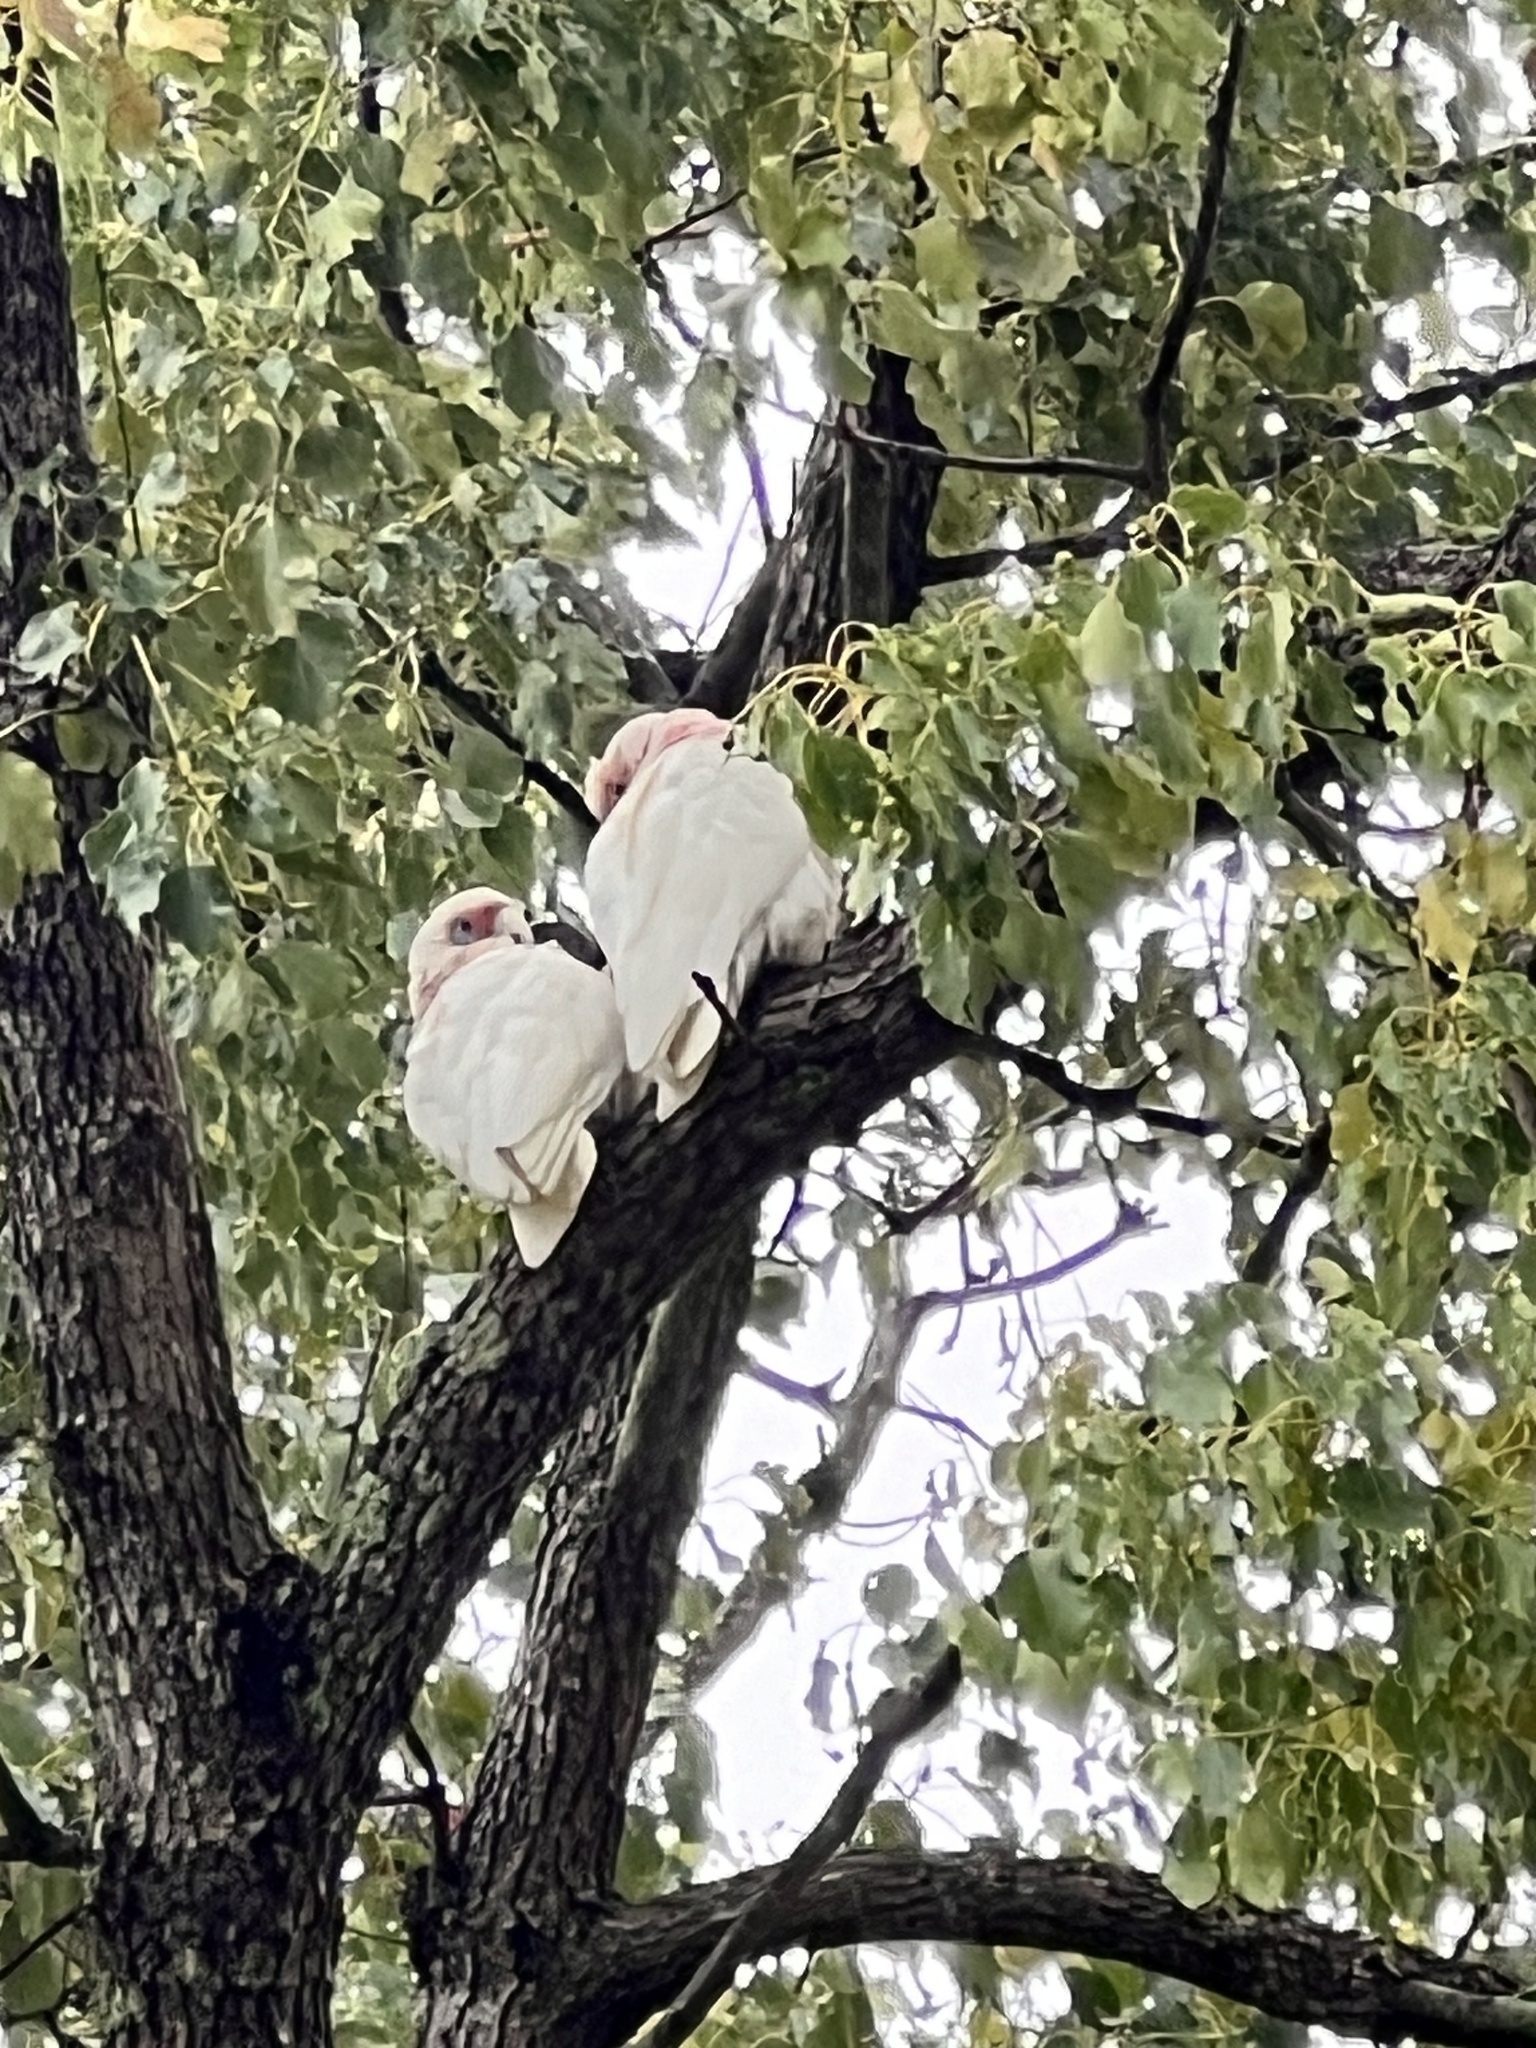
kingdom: Animalia
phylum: Chordata
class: Aves
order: Psittaciformes
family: Psittacidae
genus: Cacatua
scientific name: Cacatua tenuirostris
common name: Long-billed corella
